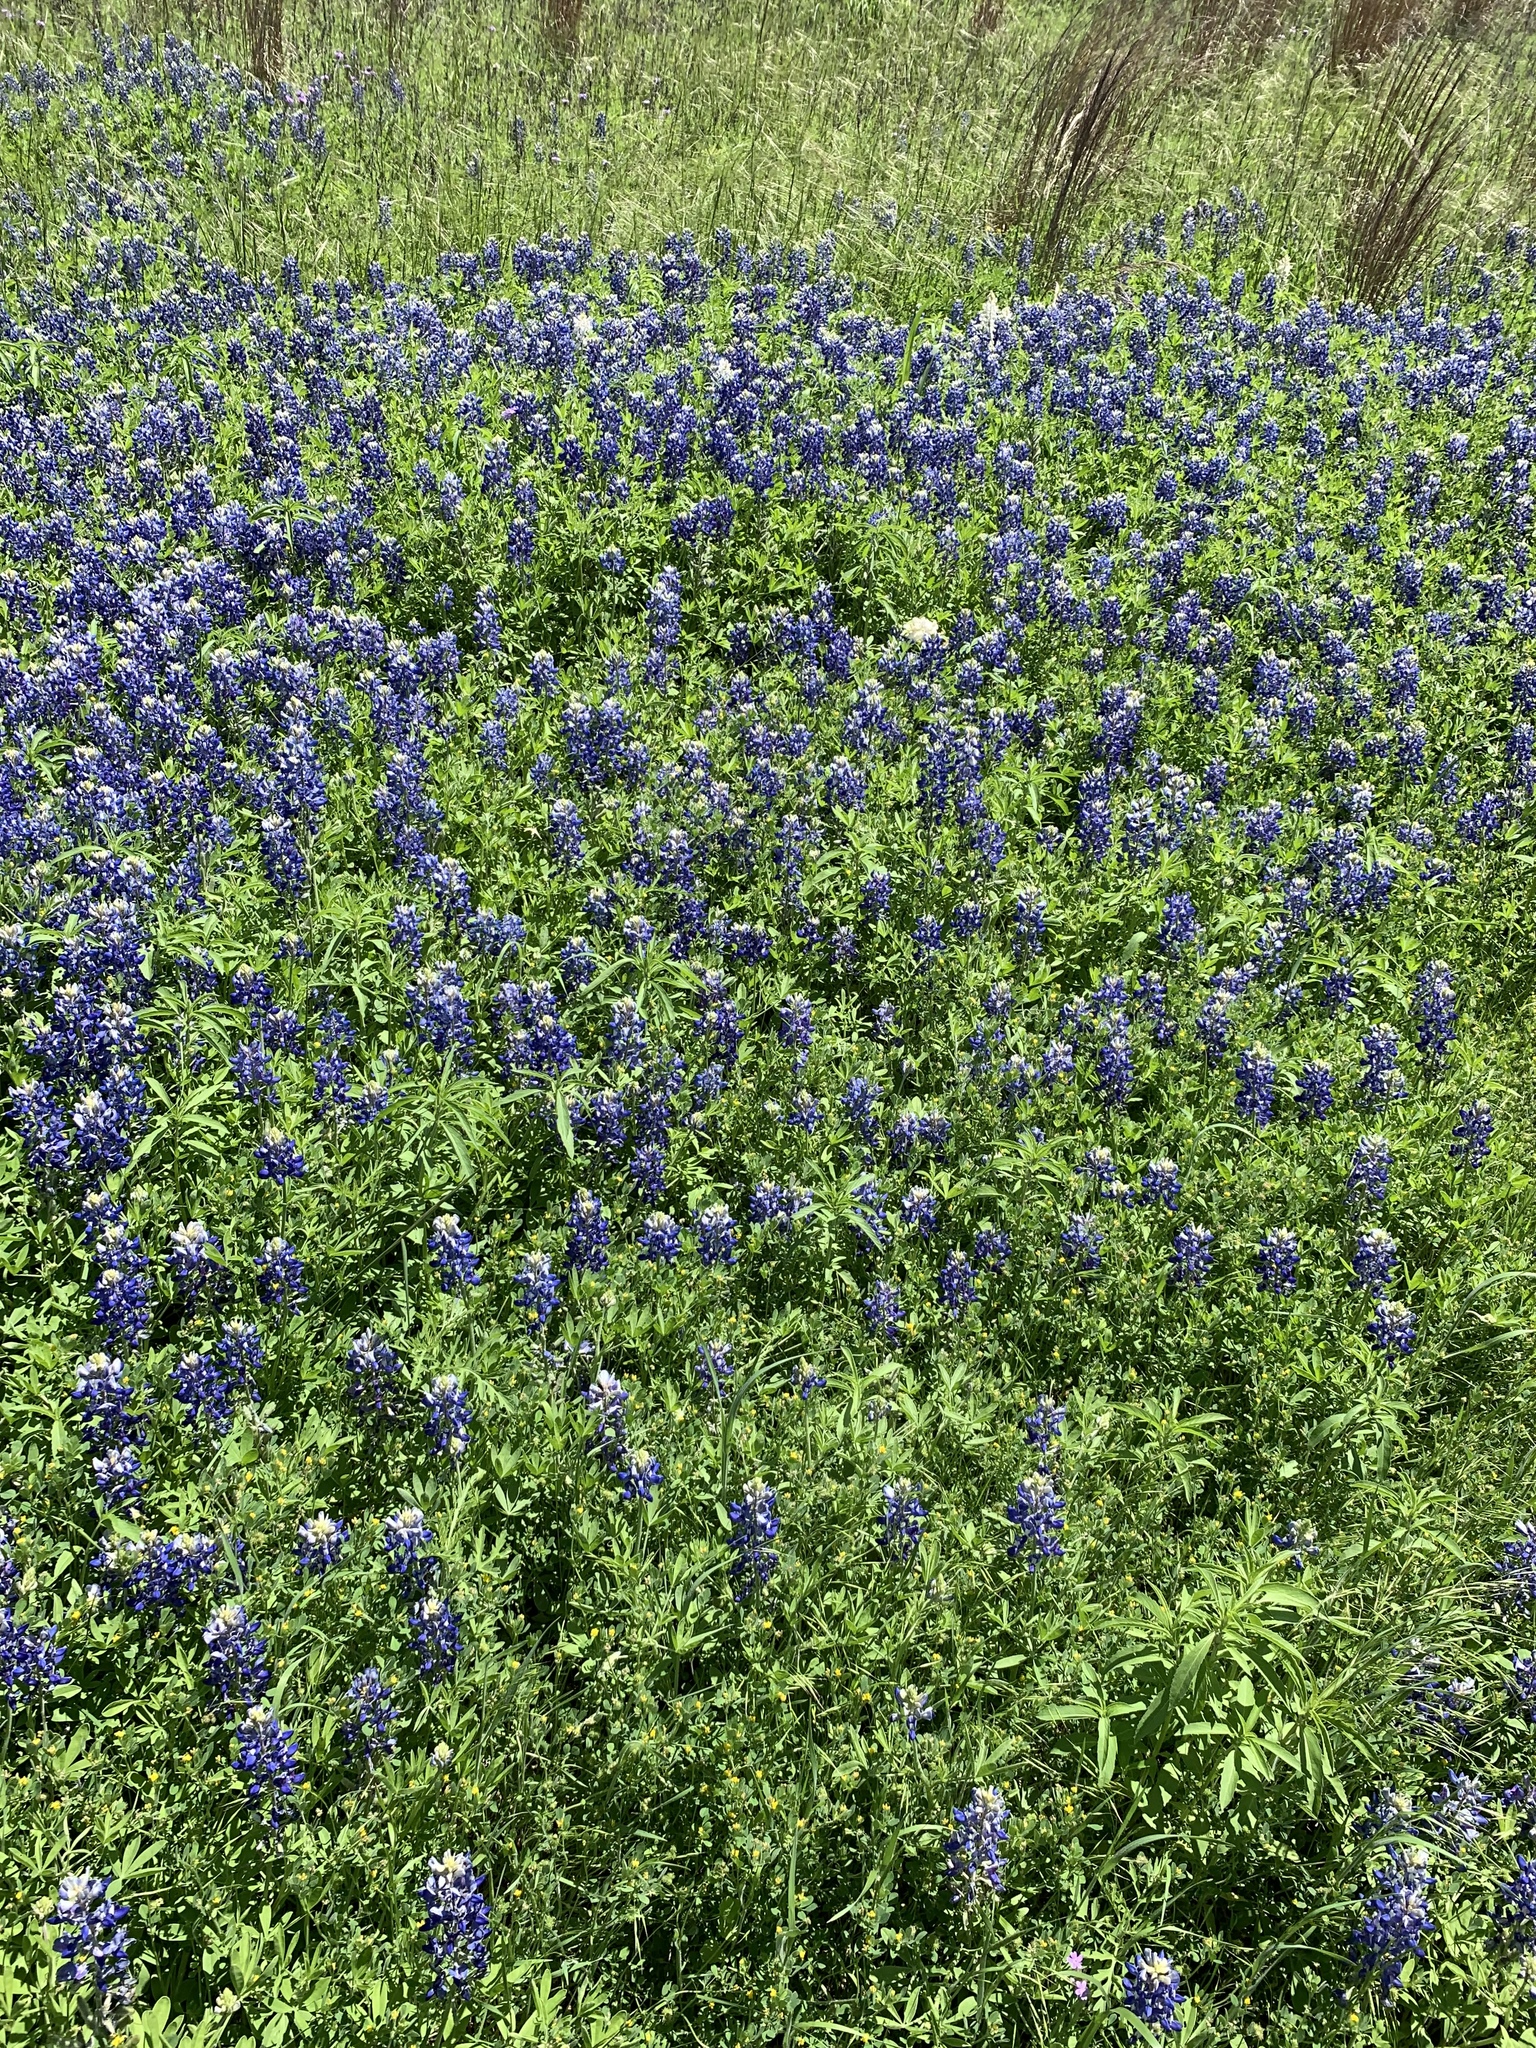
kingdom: Plantae
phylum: Tracheophyta
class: Magnoliopsida
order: Fabales
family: Fabaceae
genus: Lupinus
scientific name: Lupinus texensis
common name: Texas bluebonnet
